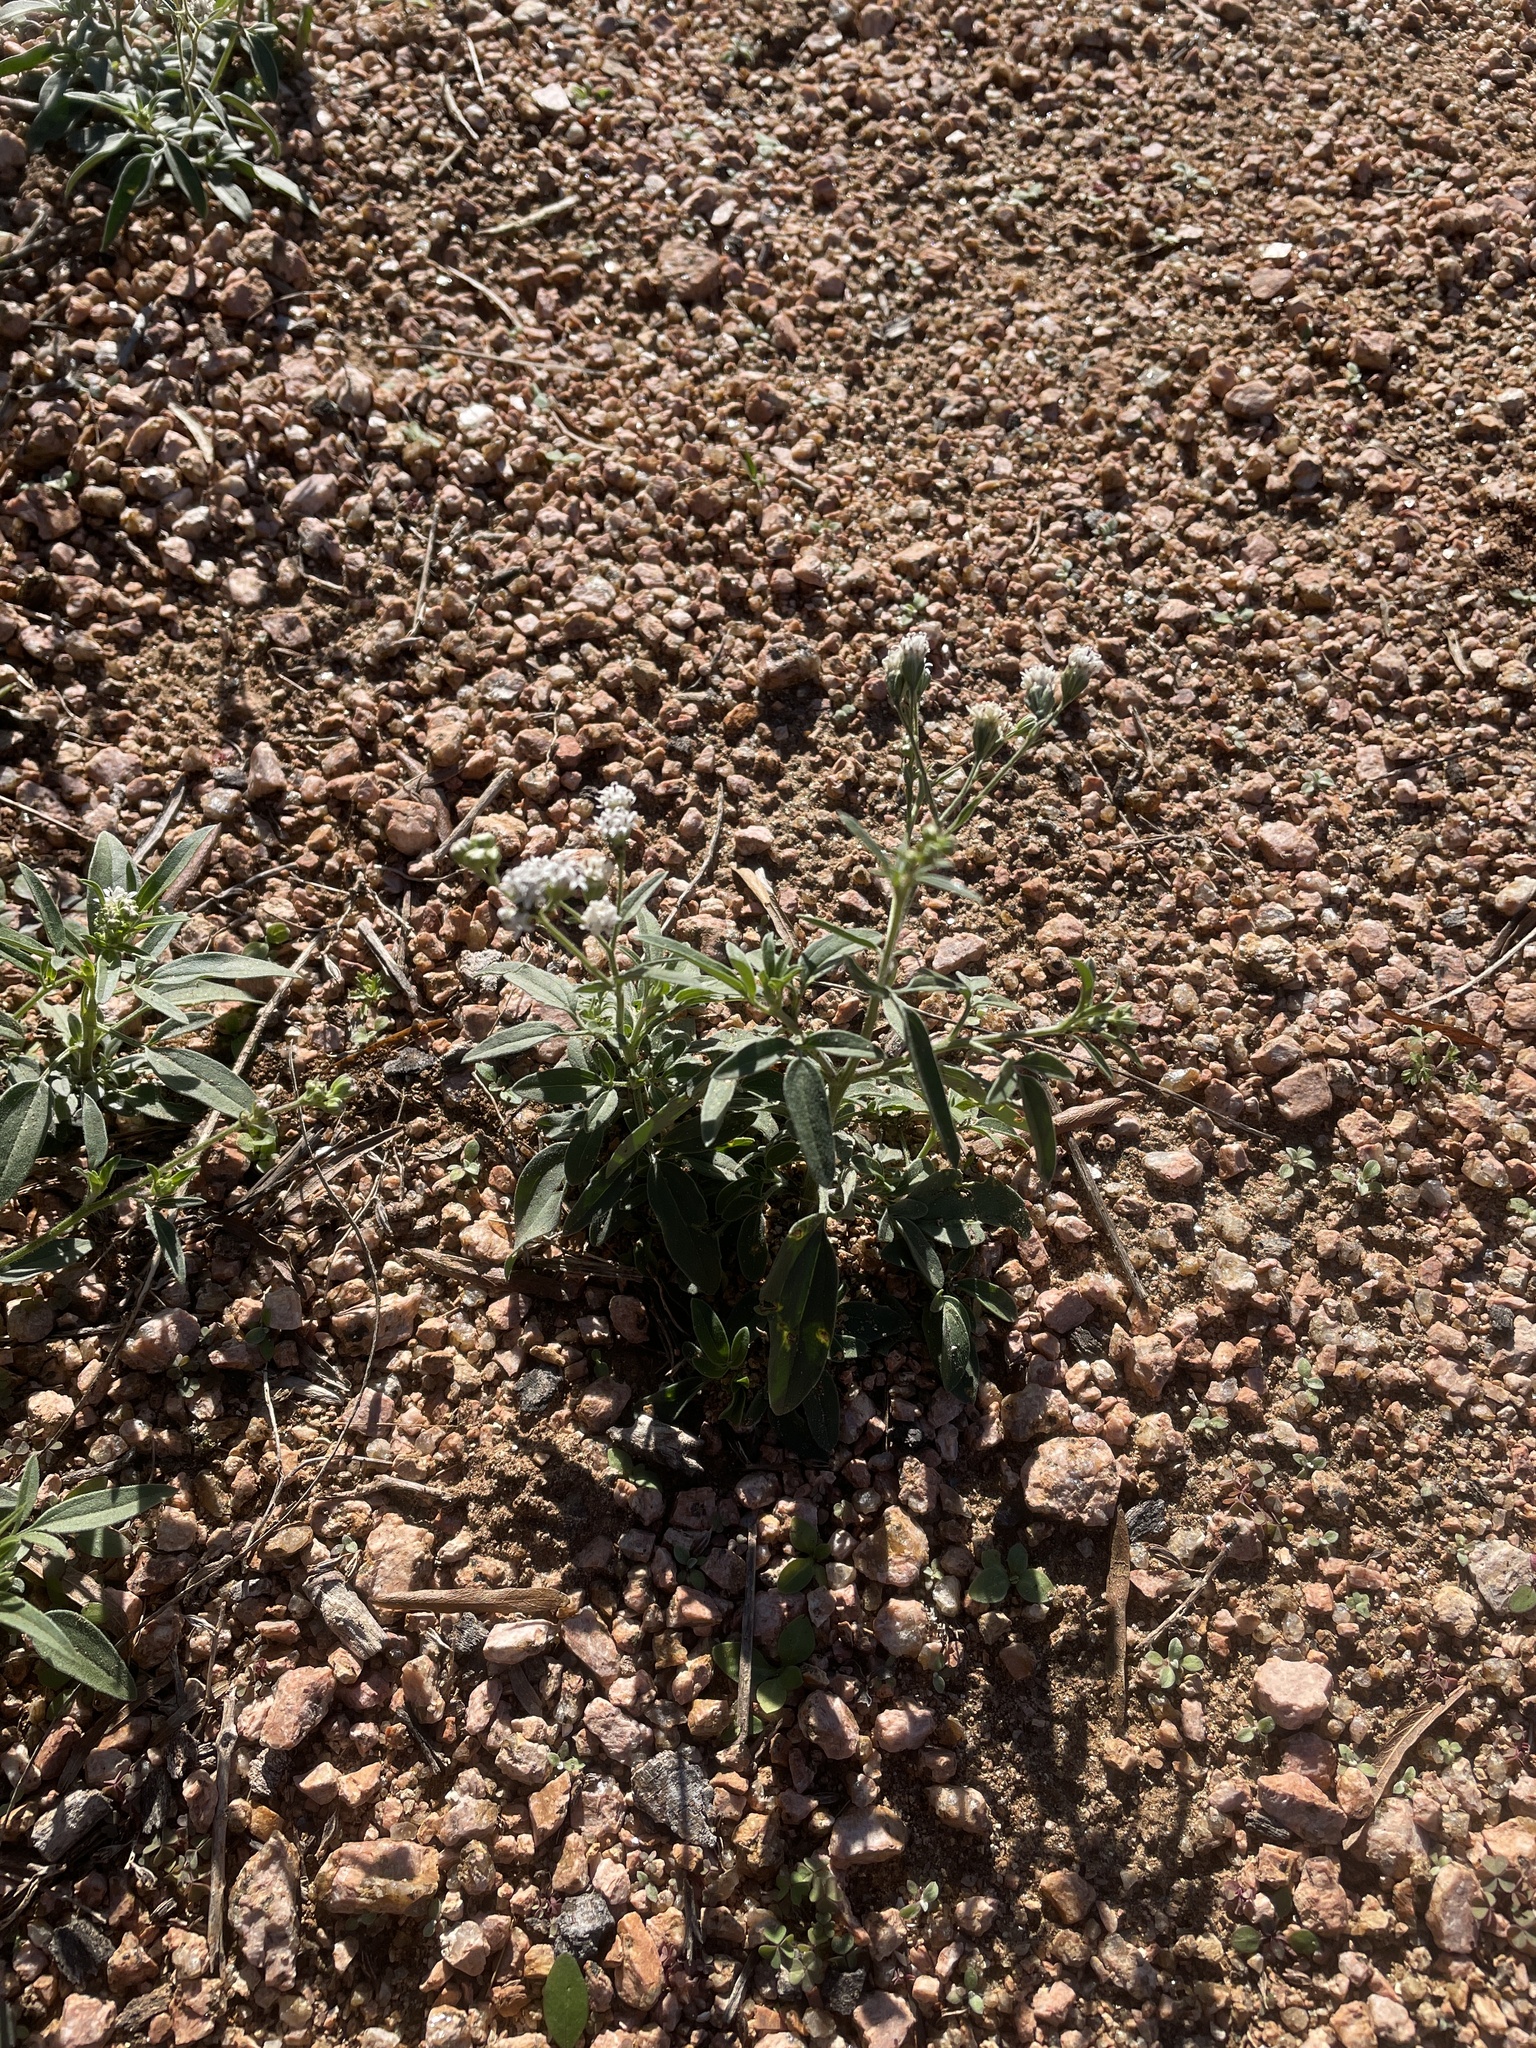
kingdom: Plantae
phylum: Tracheophyta
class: Magnoliopsida
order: Asterales
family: Asteraceae
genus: Florestina
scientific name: Florestina tripteris
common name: Sticky florestina
